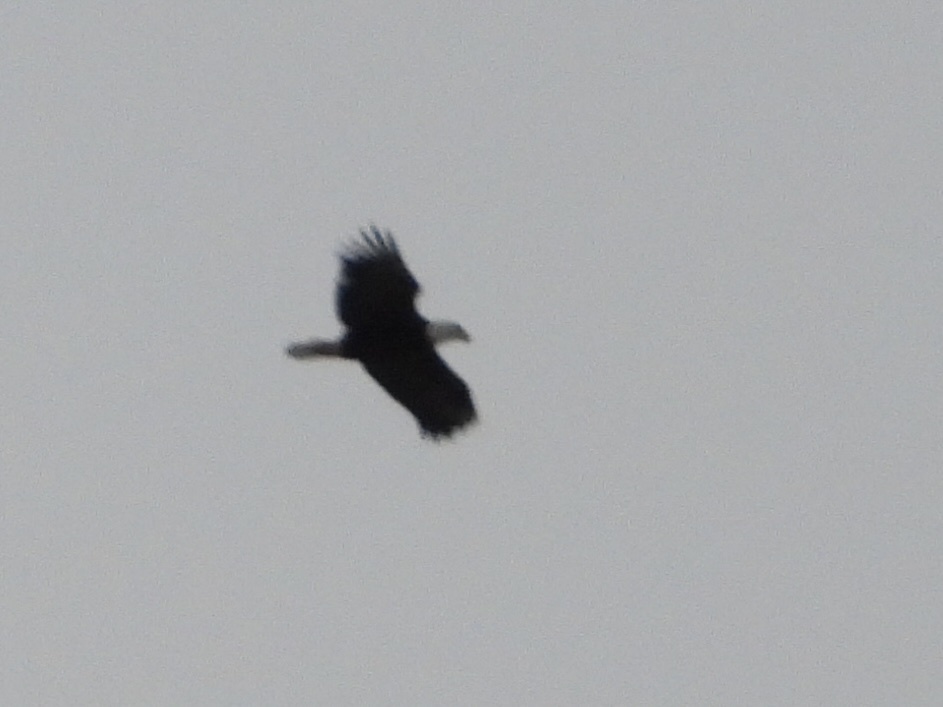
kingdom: Animalia
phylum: Chordata
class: Aves
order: Accipitriformes
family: Accipitridae
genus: Haliaeetus
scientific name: Haliaeetus leucocephalus
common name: Bald eagle
